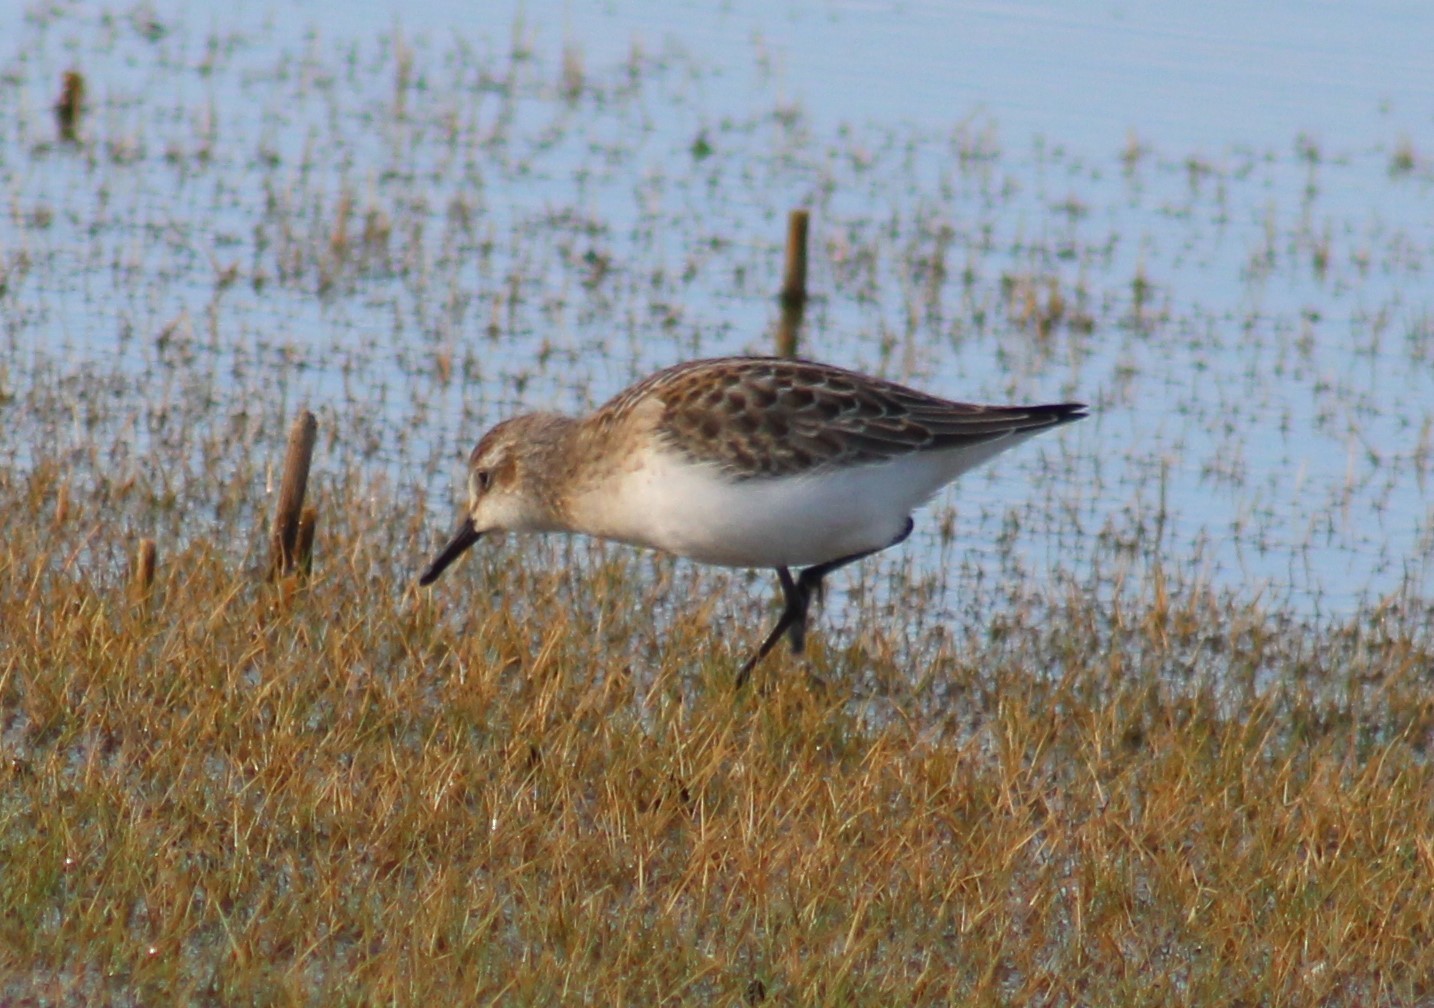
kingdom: Animalia
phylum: Chordata
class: Aves
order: Charadriiformes
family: Scolopacidae
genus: Calidris
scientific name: Calidris pusilla
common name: Semipalmated sandpiper
